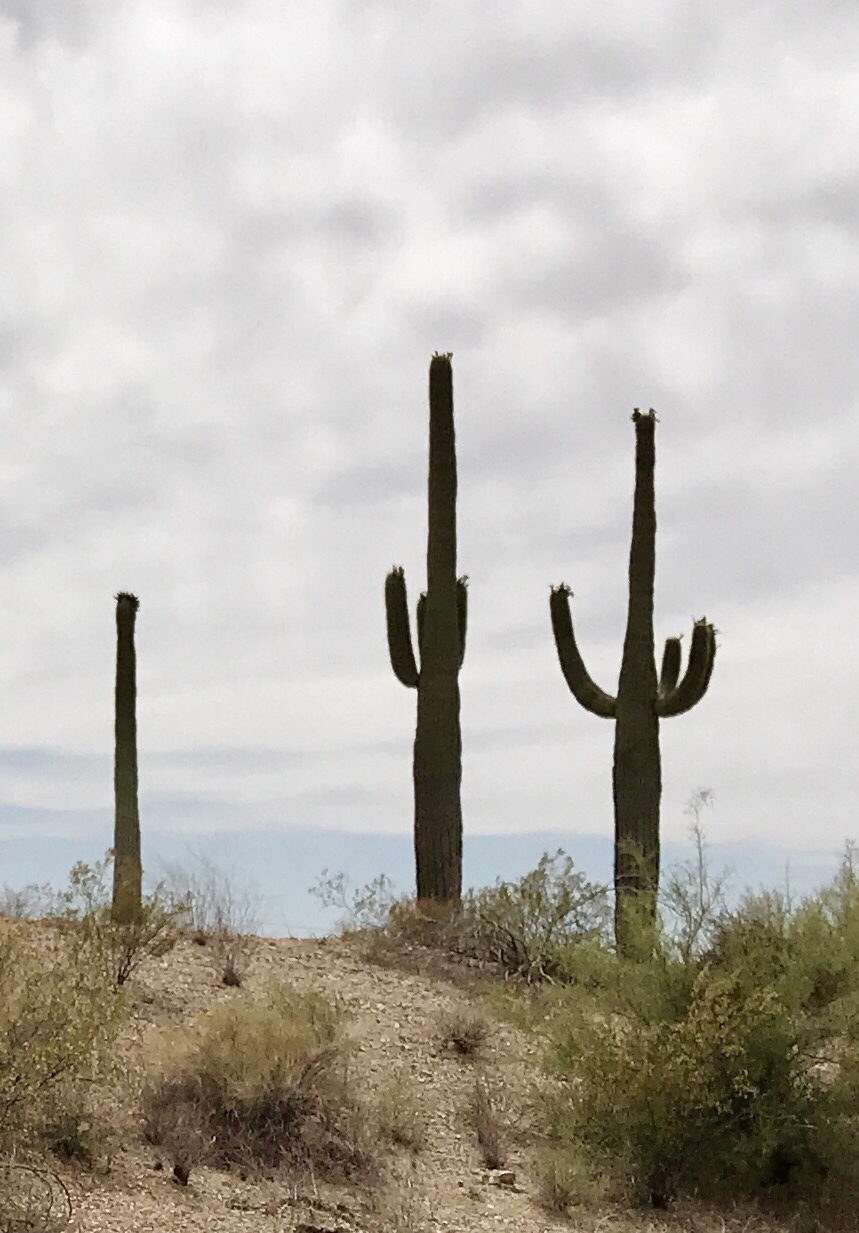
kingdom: Plantae
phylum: Tracheophyta
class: Magnoliopsida
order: Caryophyllales
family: Cactaceae
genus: Carnegiea
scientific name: Carnegiea gigantea
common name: Saguaro
